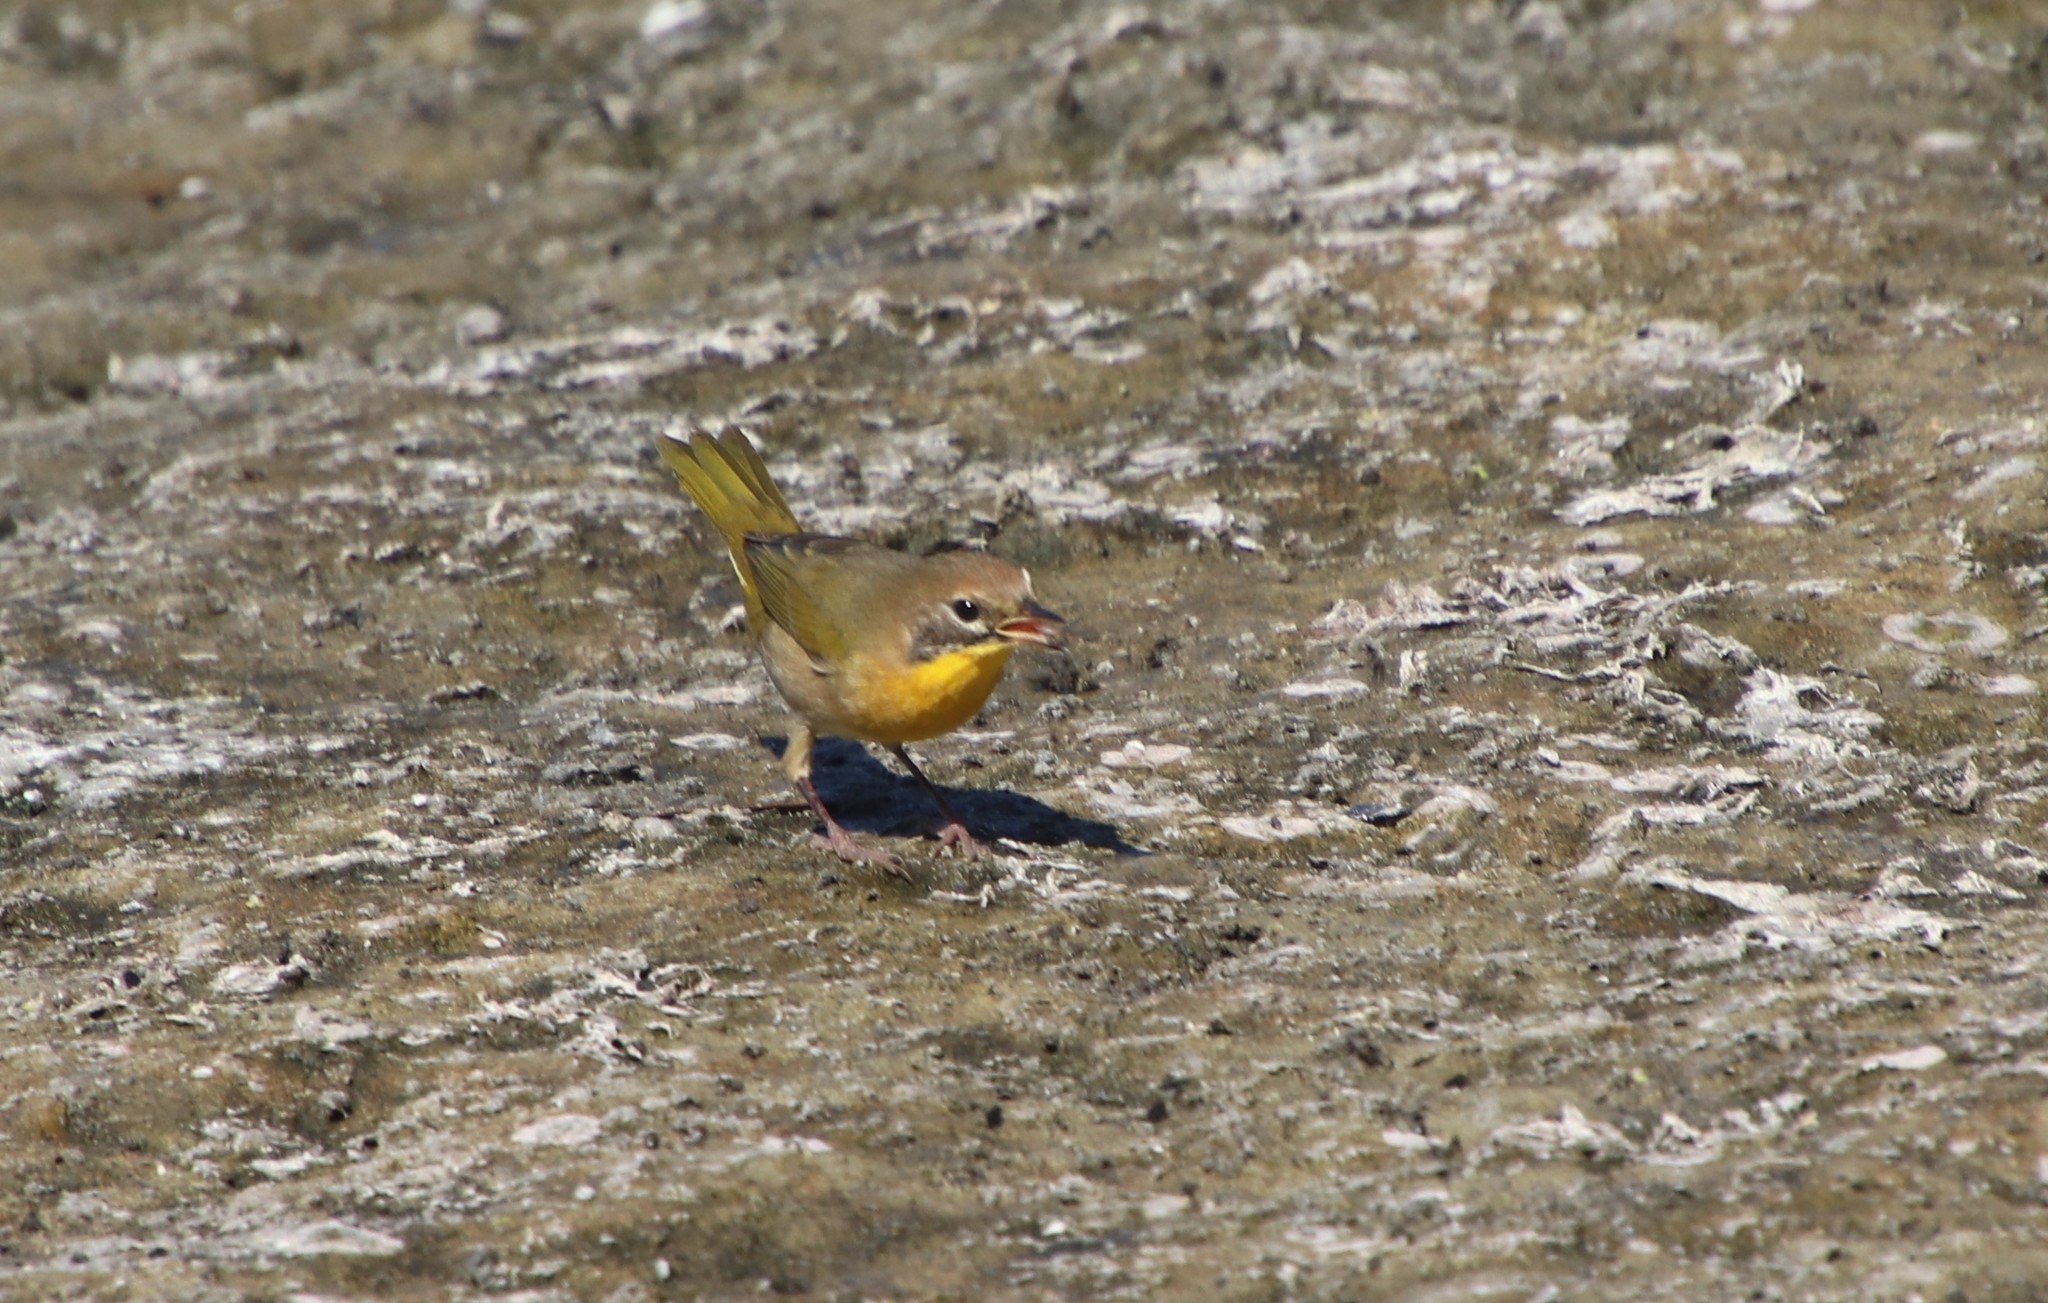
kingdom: Animalia
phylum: Chordata
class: Aves
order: Passeriformes
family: Parulidae
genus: Geothlypis
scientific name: Geothlypis trichas
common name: Common yellowthroat
